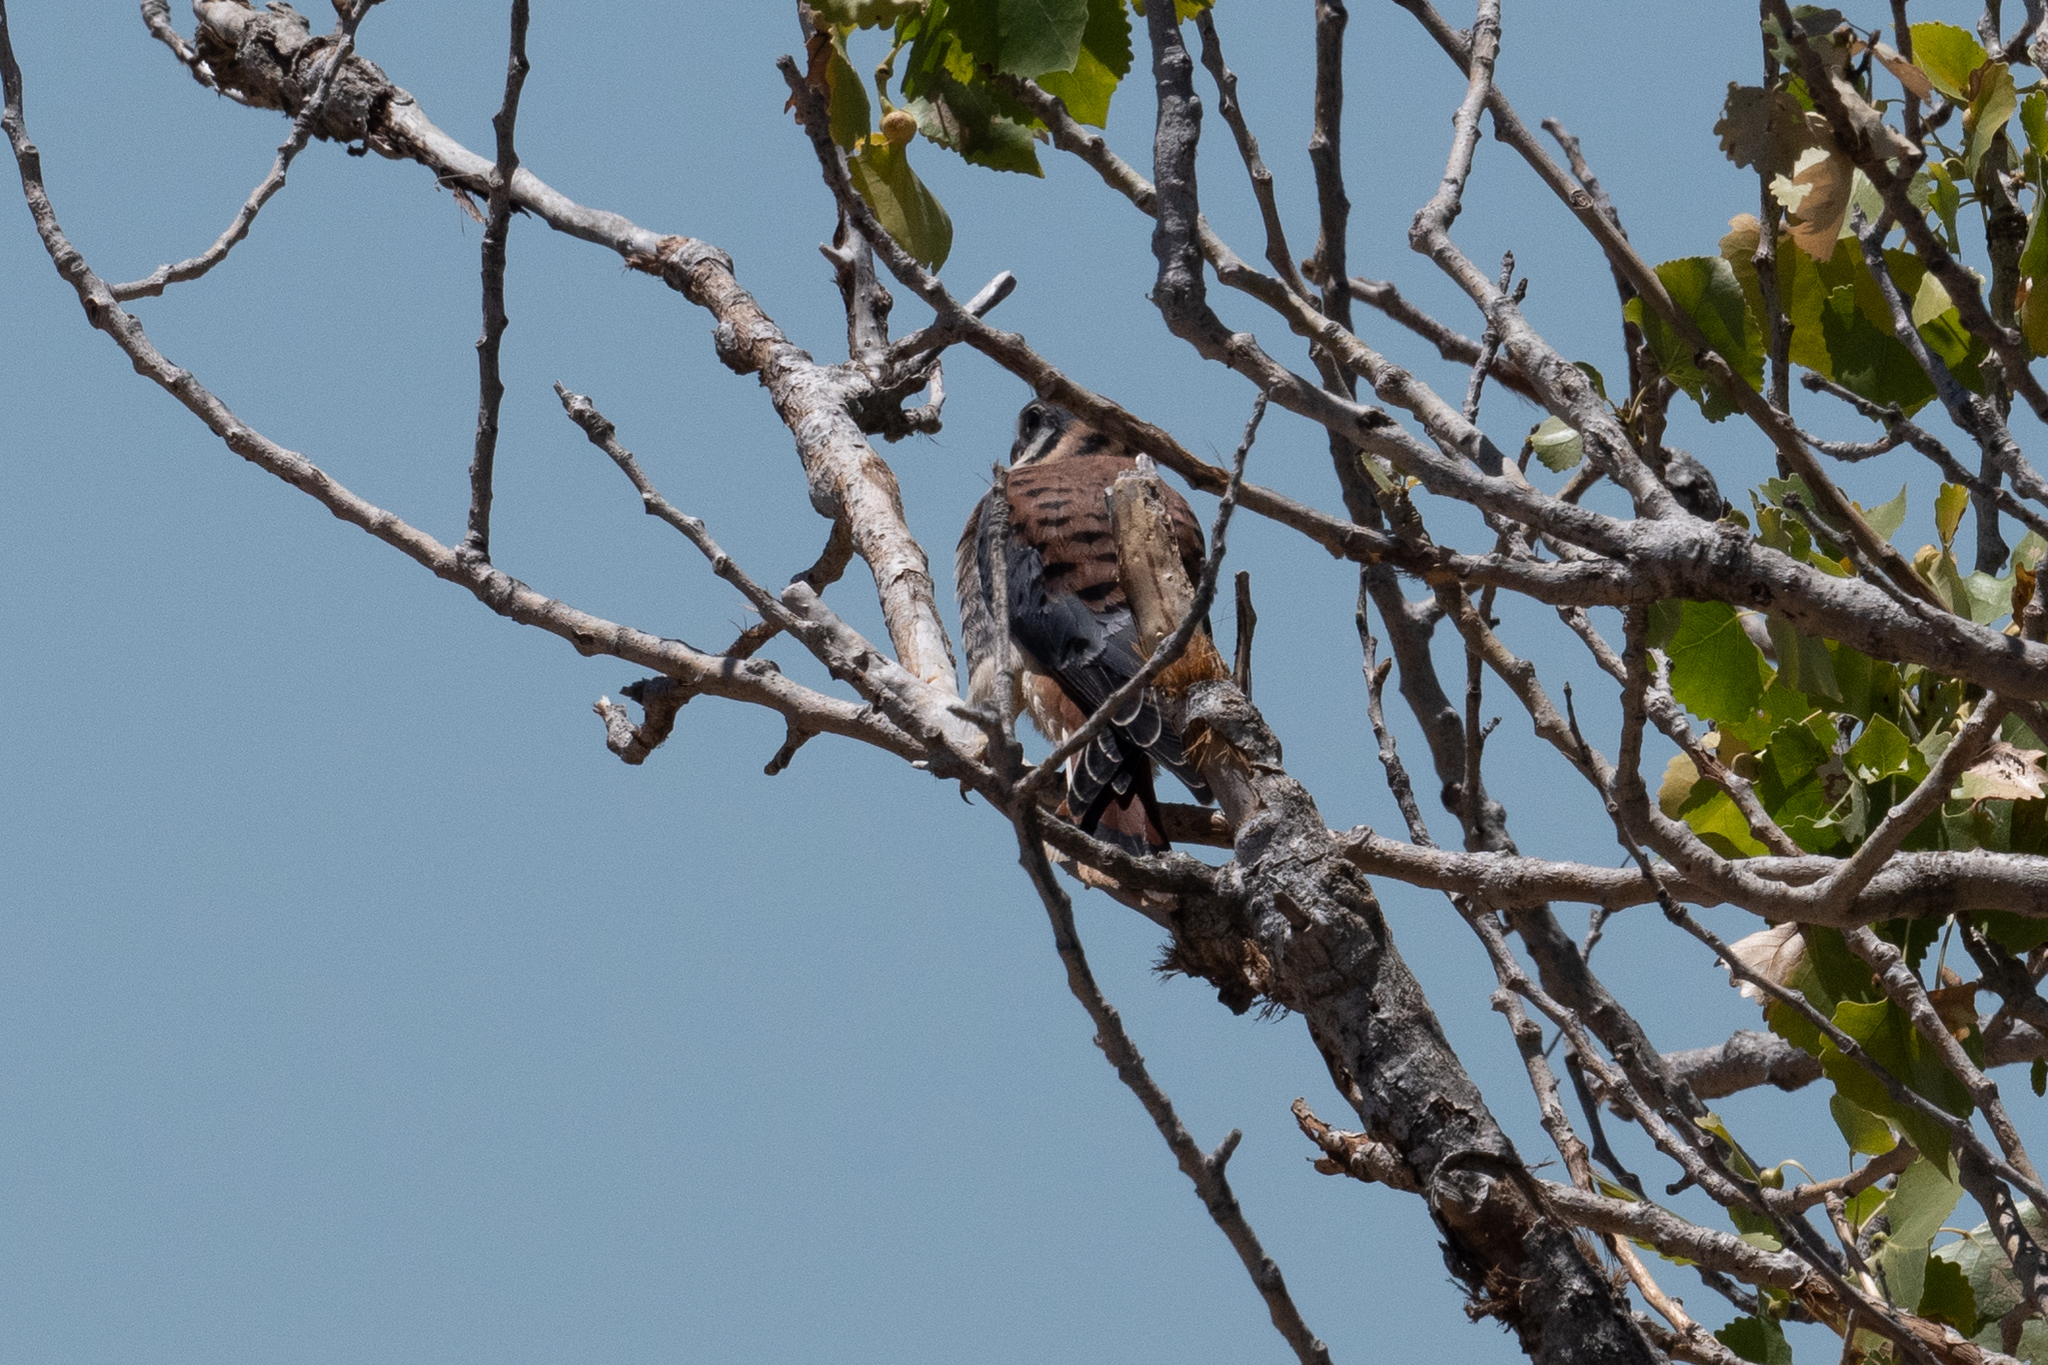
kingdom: Animalia
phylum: Chordata
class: Aves
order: Falconiformes
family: Falconidae
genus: Falco
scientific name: Falco sparverius
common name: American kestrel
